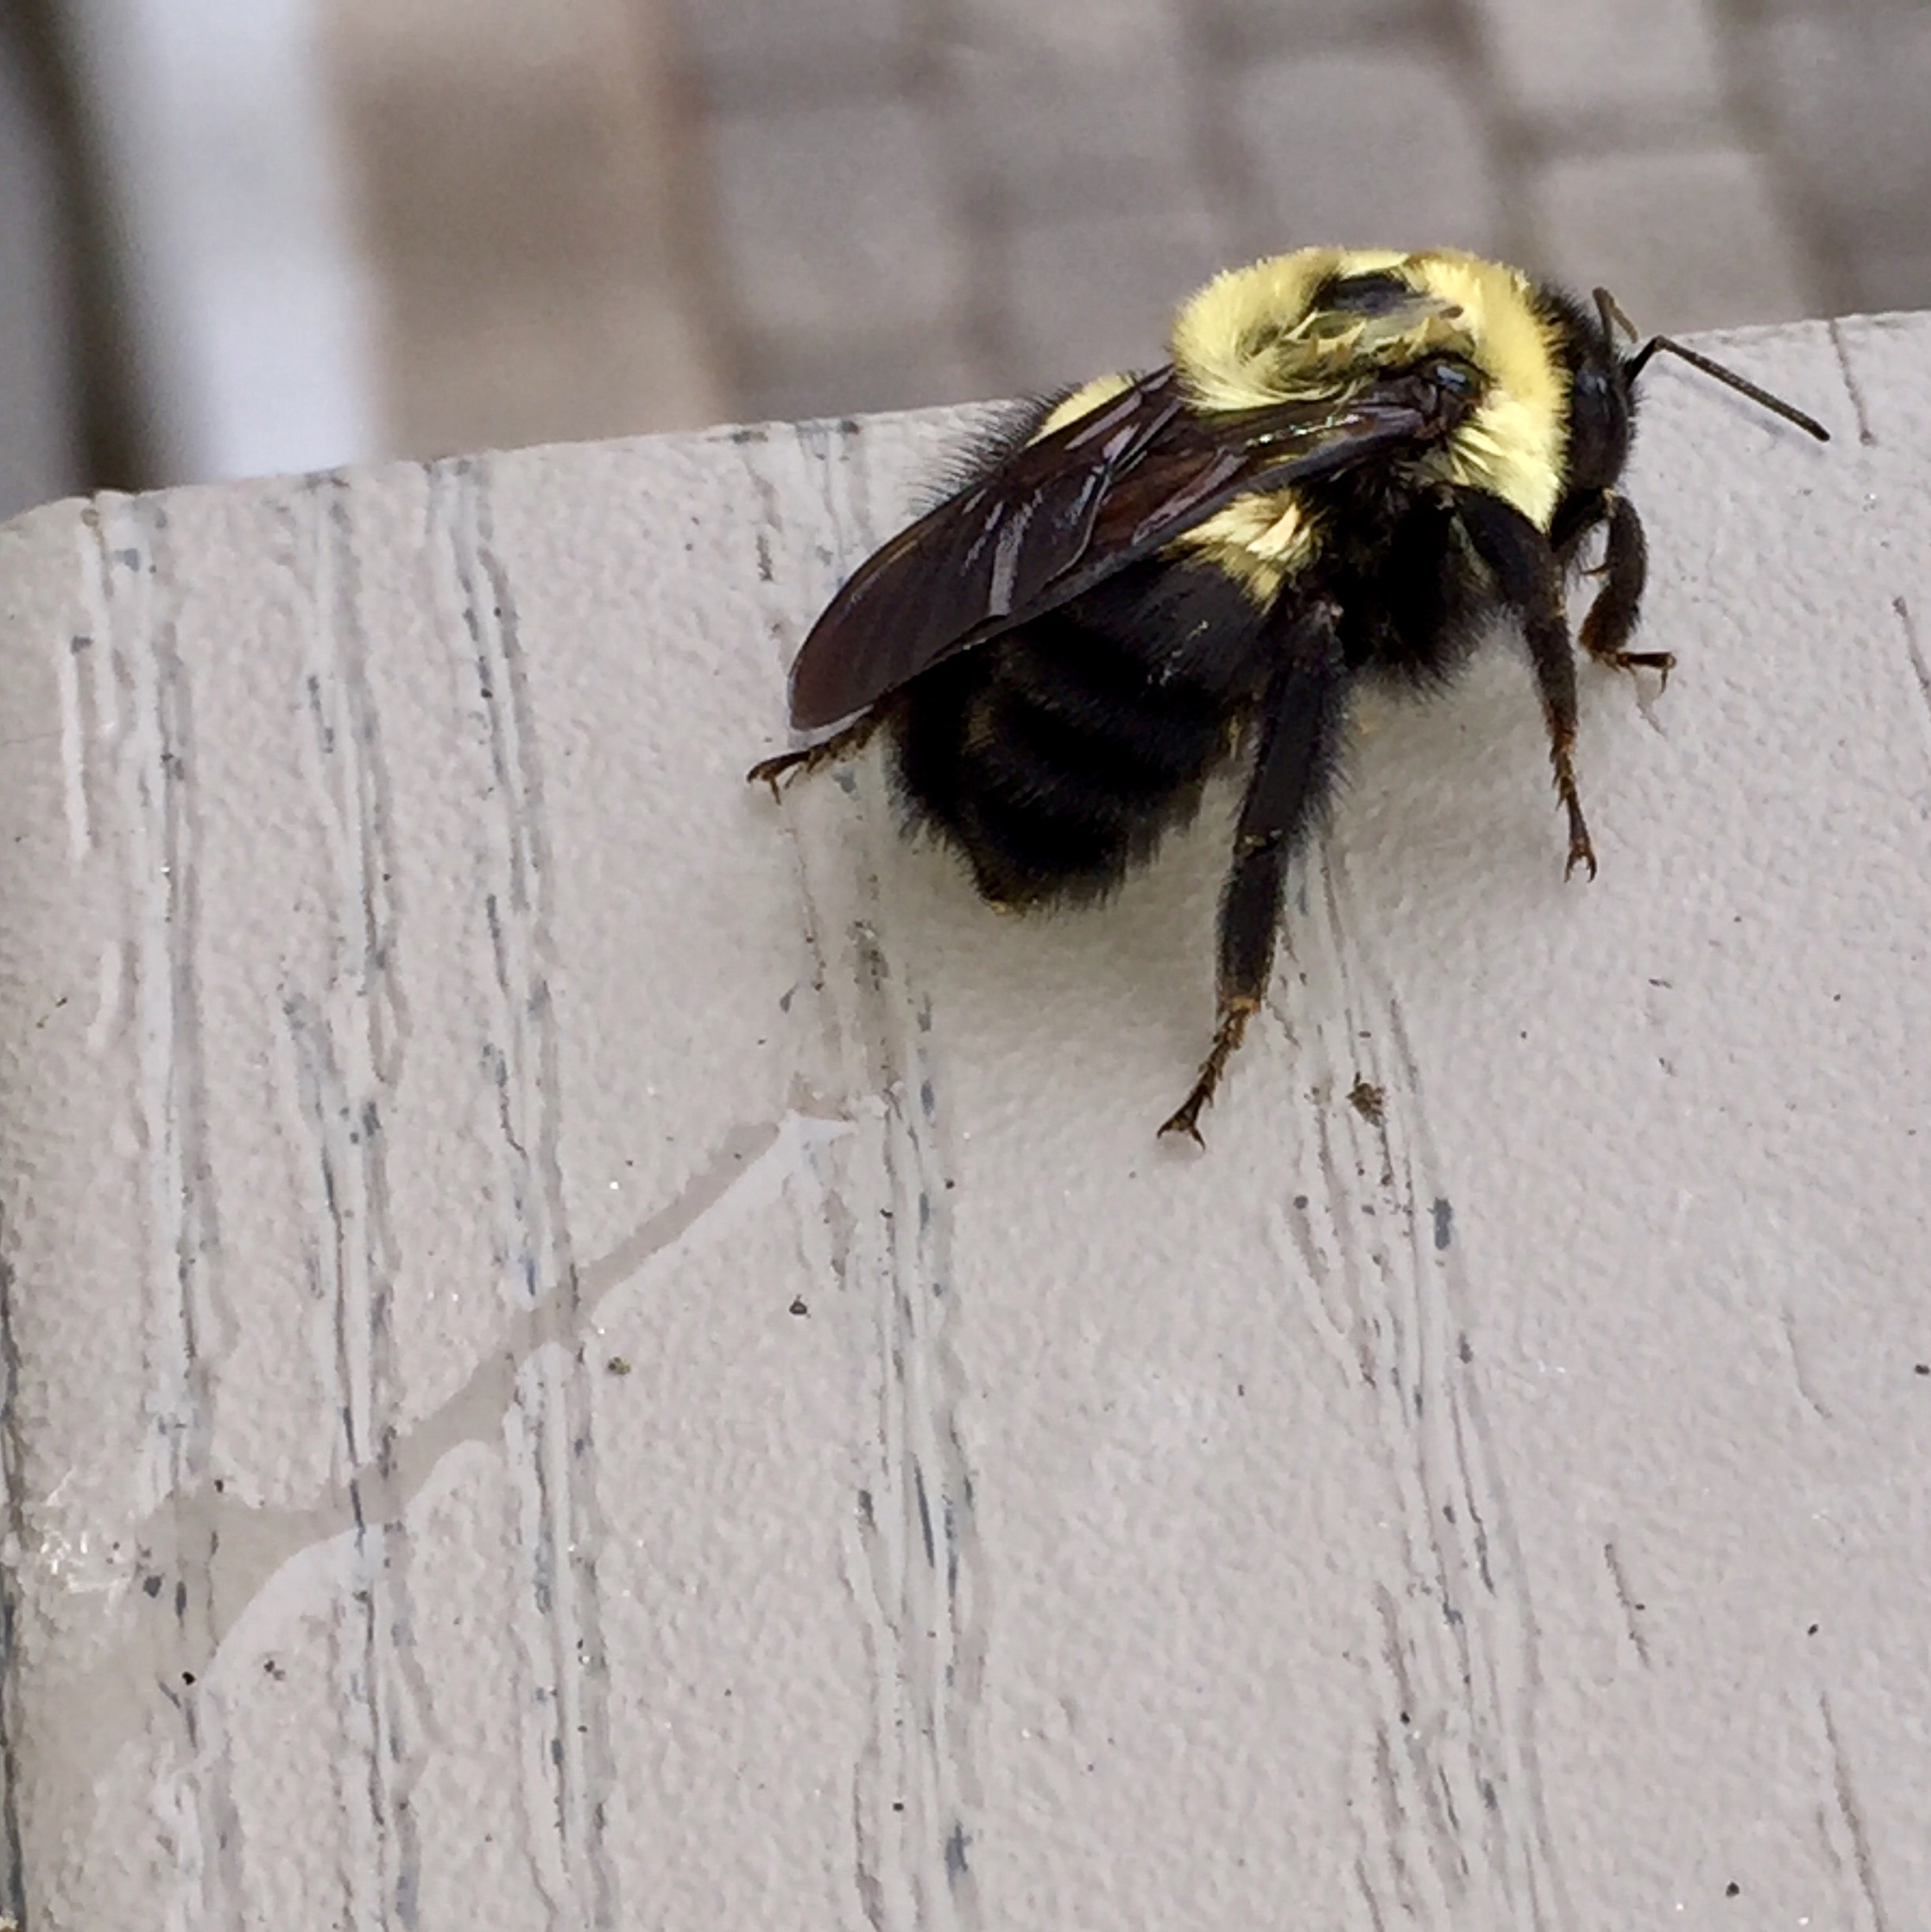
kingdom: Animalia
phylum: Arthropoda
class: Insecta
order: Hymenoptera
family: Apidae
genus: Bombus
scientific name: Bombus griseocollis
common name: Brown-belted bumble bee
